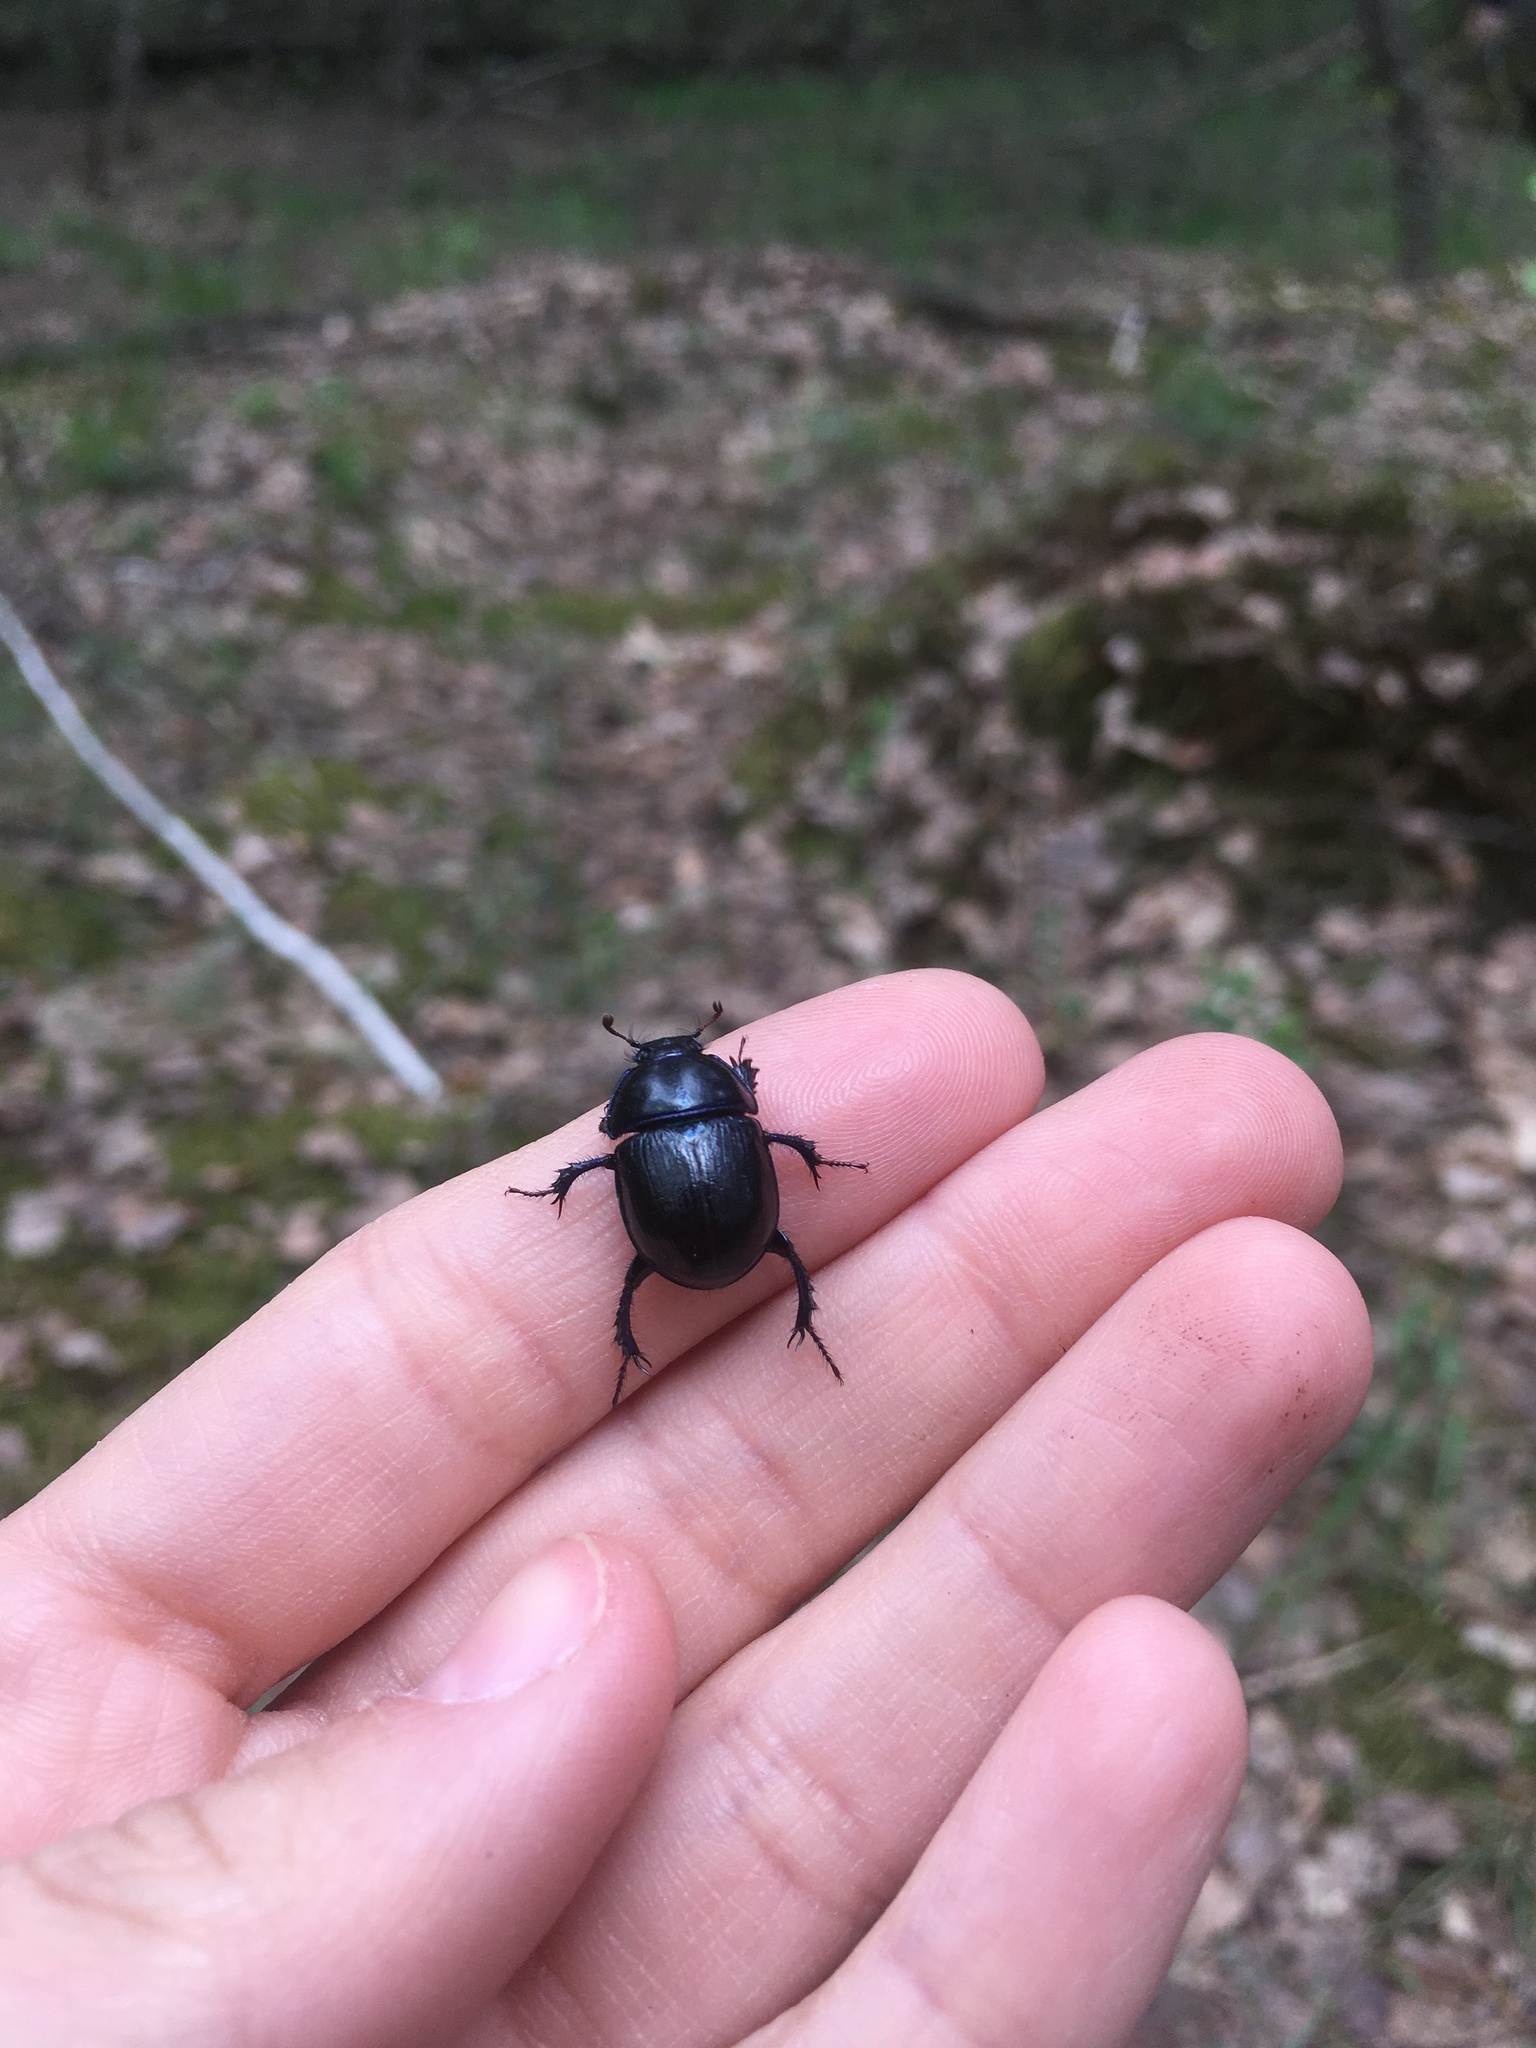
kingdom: Animalia
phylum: Arthropoda
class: Insecta
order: Coleoptera
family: Geotrupidae
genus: Anoplotrupes
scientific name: Anoplotrupes stercorosus
